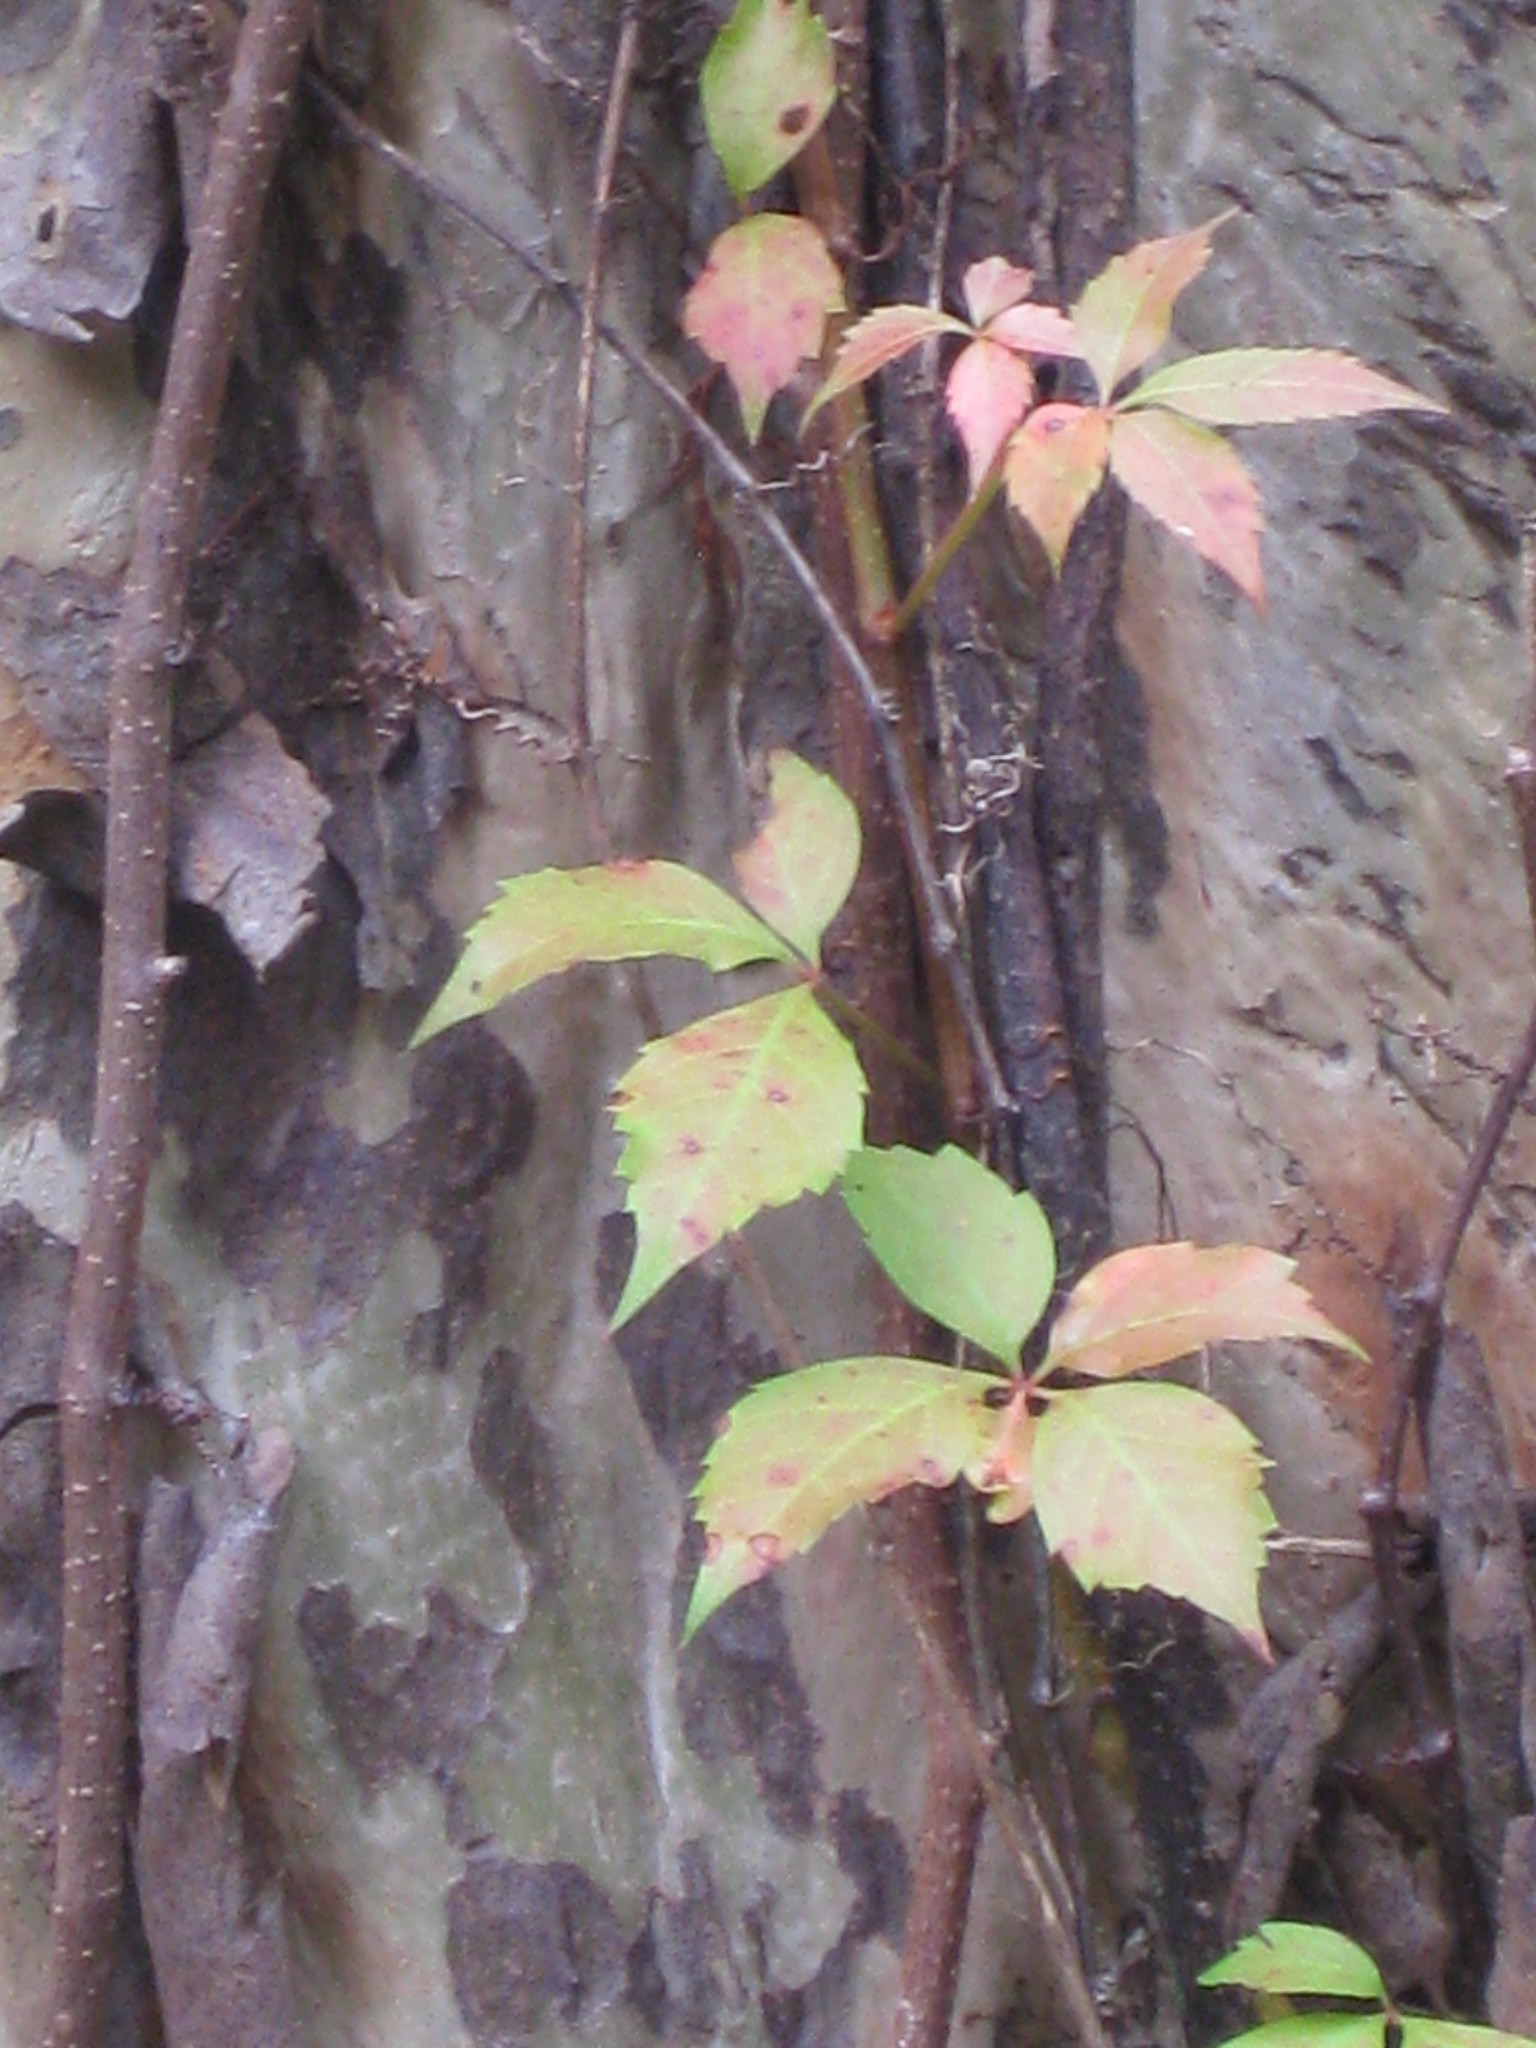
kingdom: Plantae
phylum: Tracheophyta
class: Magnoliopsida
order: Vitales
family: Vitaceae
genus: Parthenocissus
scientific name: Parthenocissus quinquefolia
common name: Virginia-creeper
